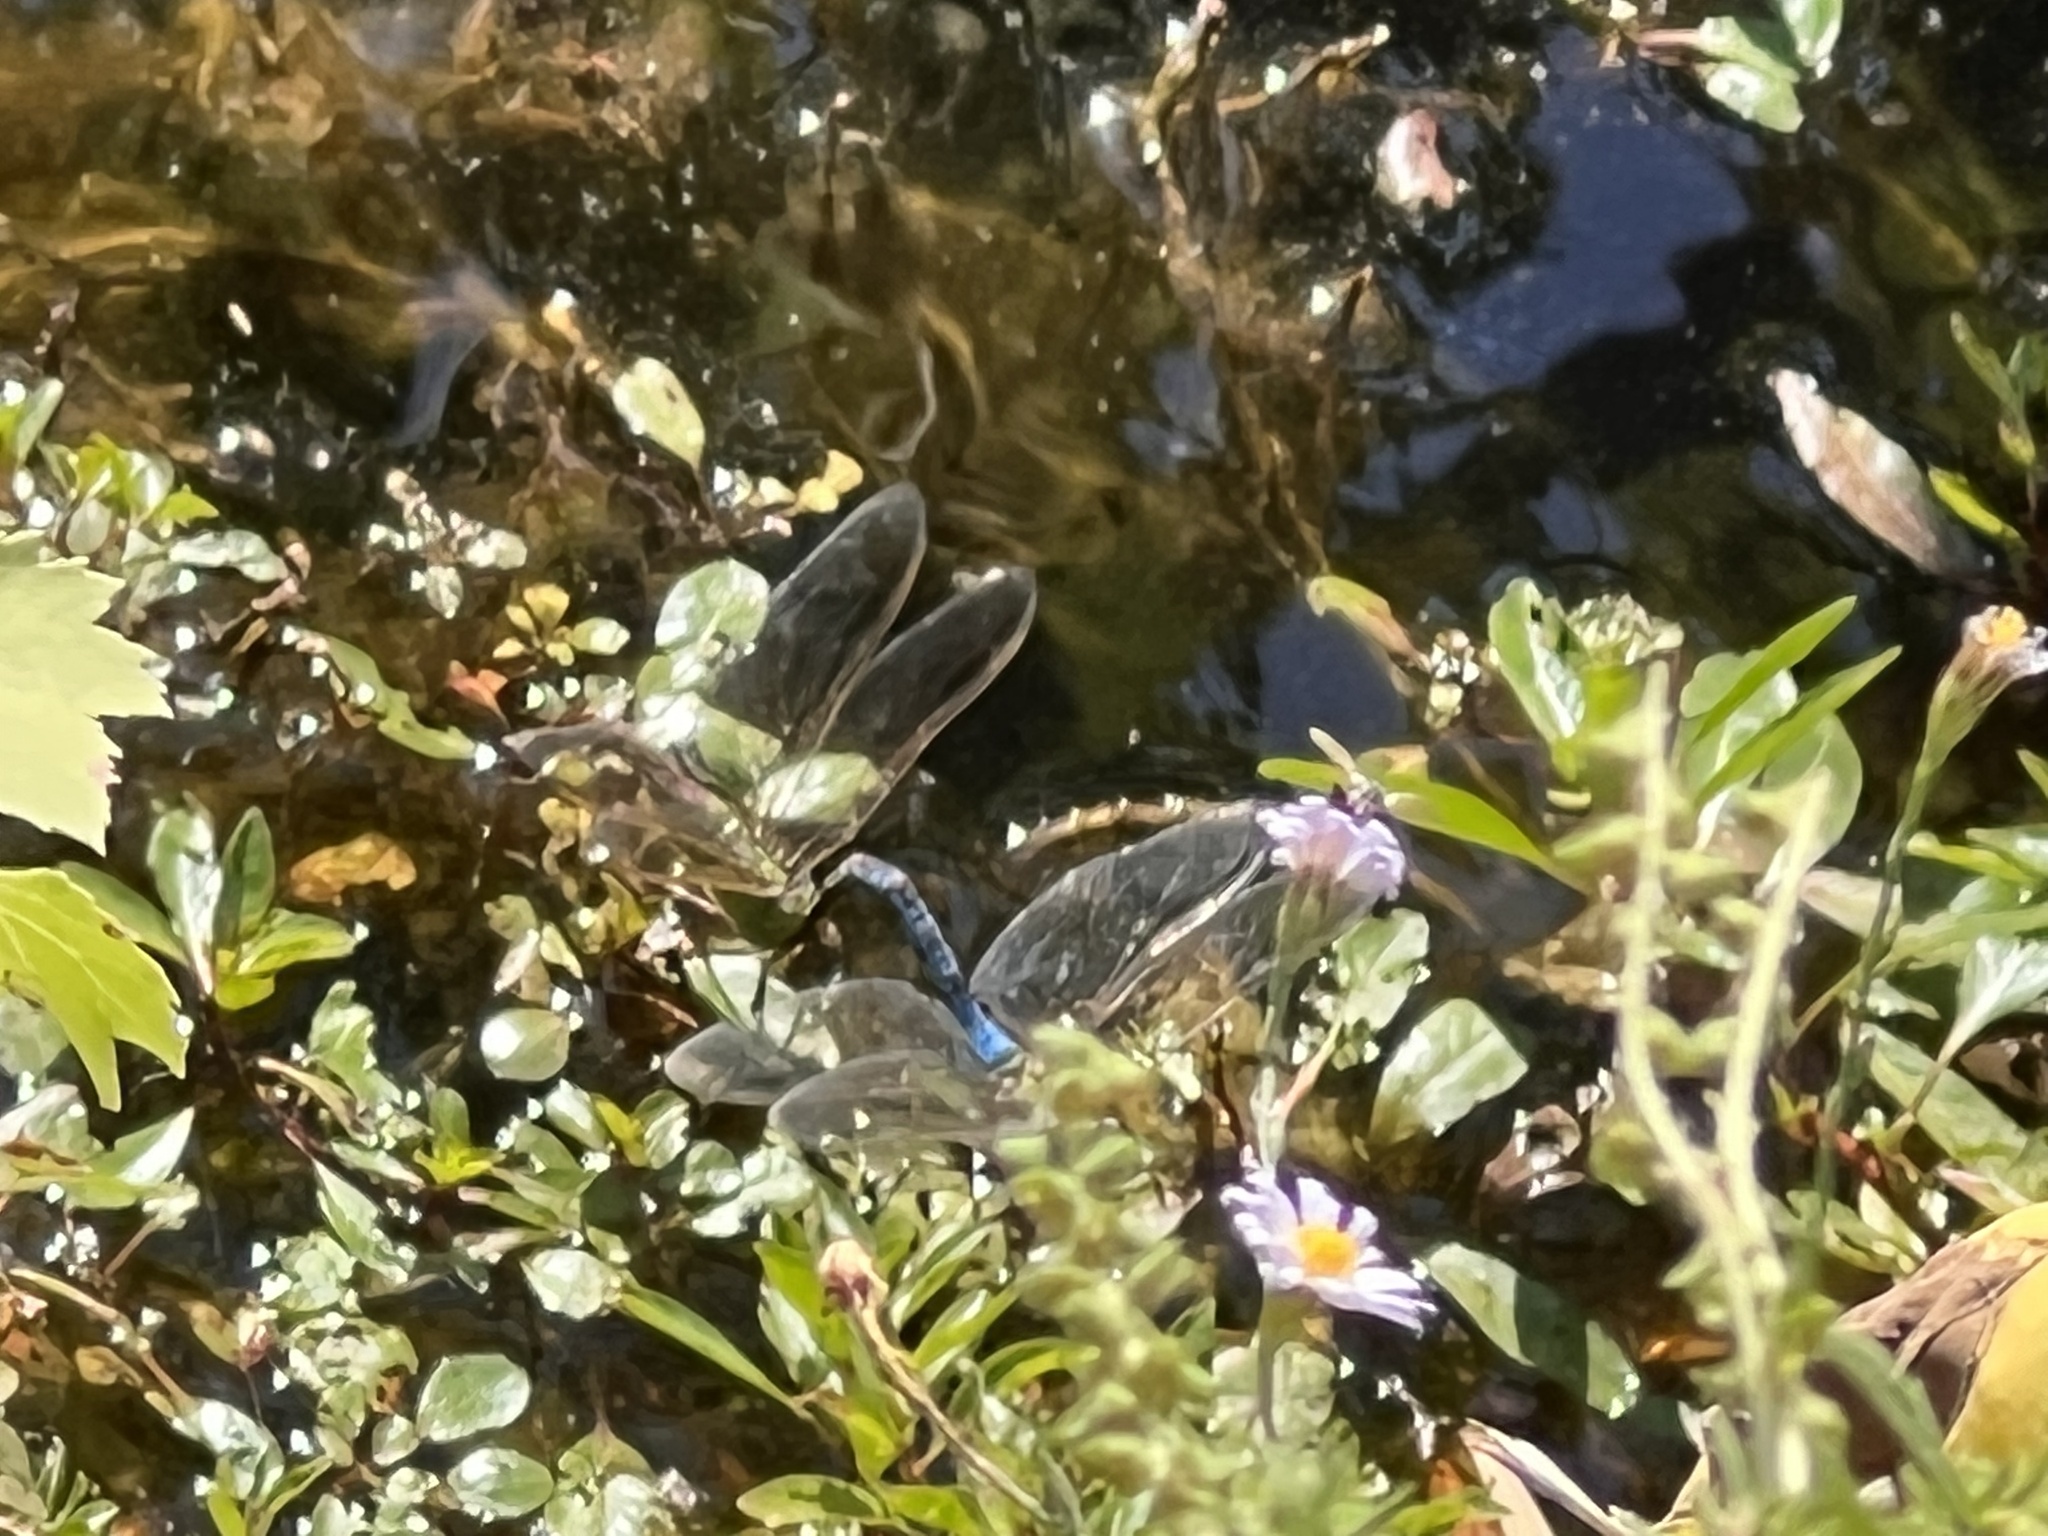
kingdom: Animalia
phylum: Arthropoda
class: Insecta
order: Odonata
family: Aeshnidae
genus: Anax
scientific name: Anax junius
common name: Common green darner
